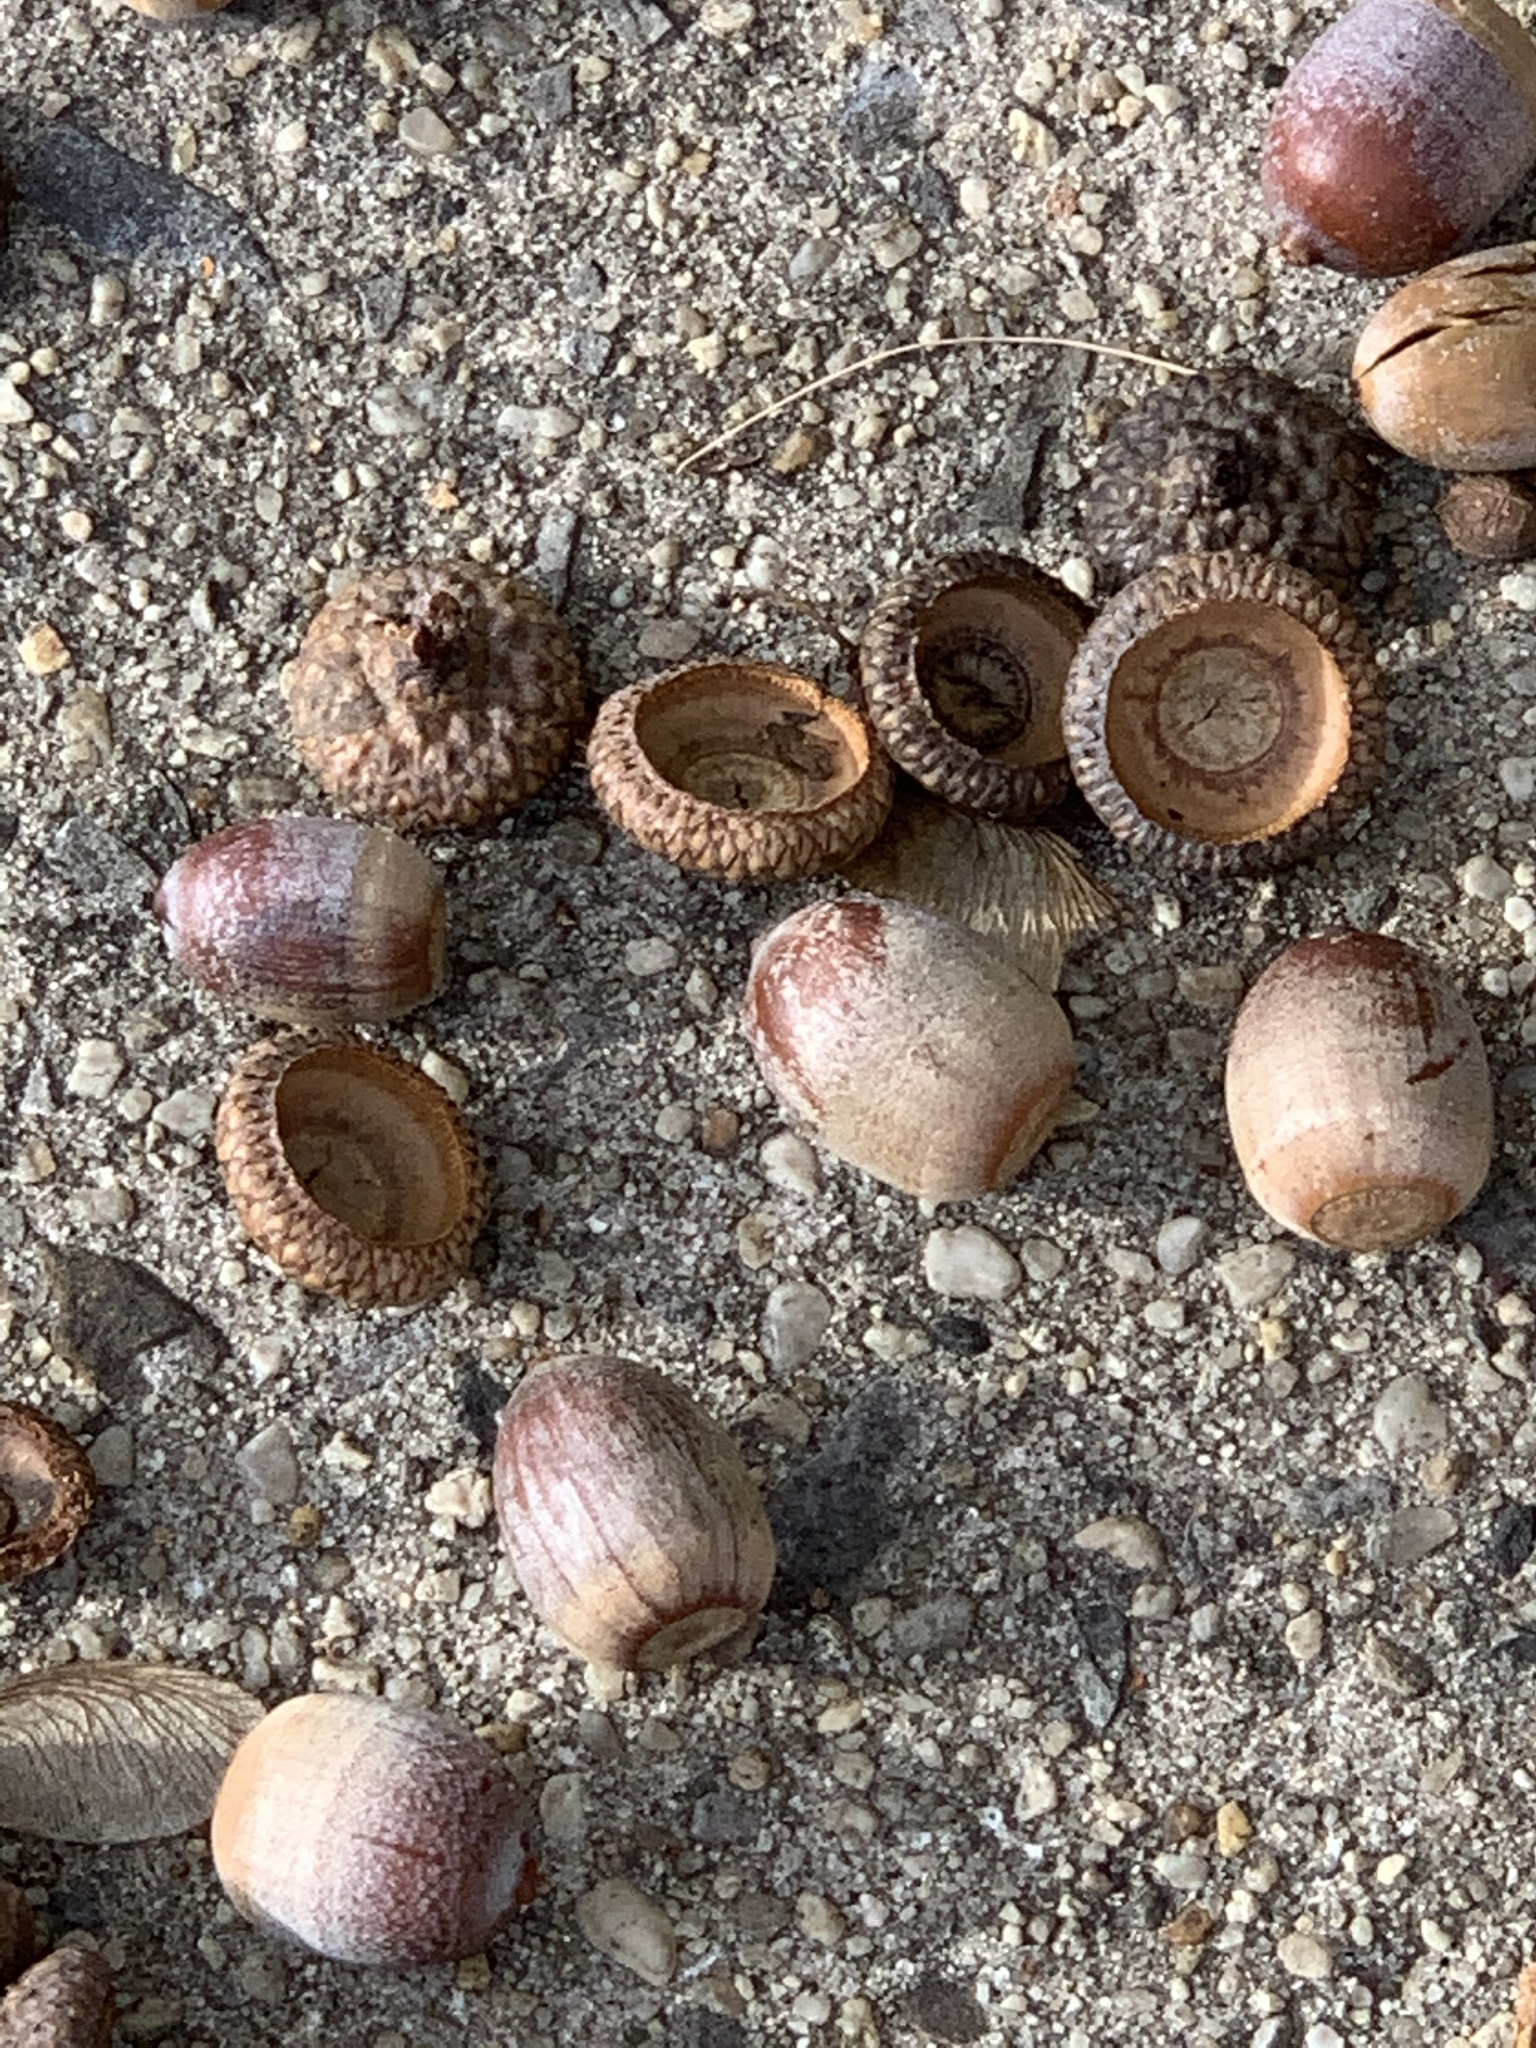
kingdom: Plantae
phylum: Tracheophyta
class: Magnoliopsida
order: Fagales
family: Fagaceae
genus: Quercus
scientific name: Quercus rubra
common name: Red oak
